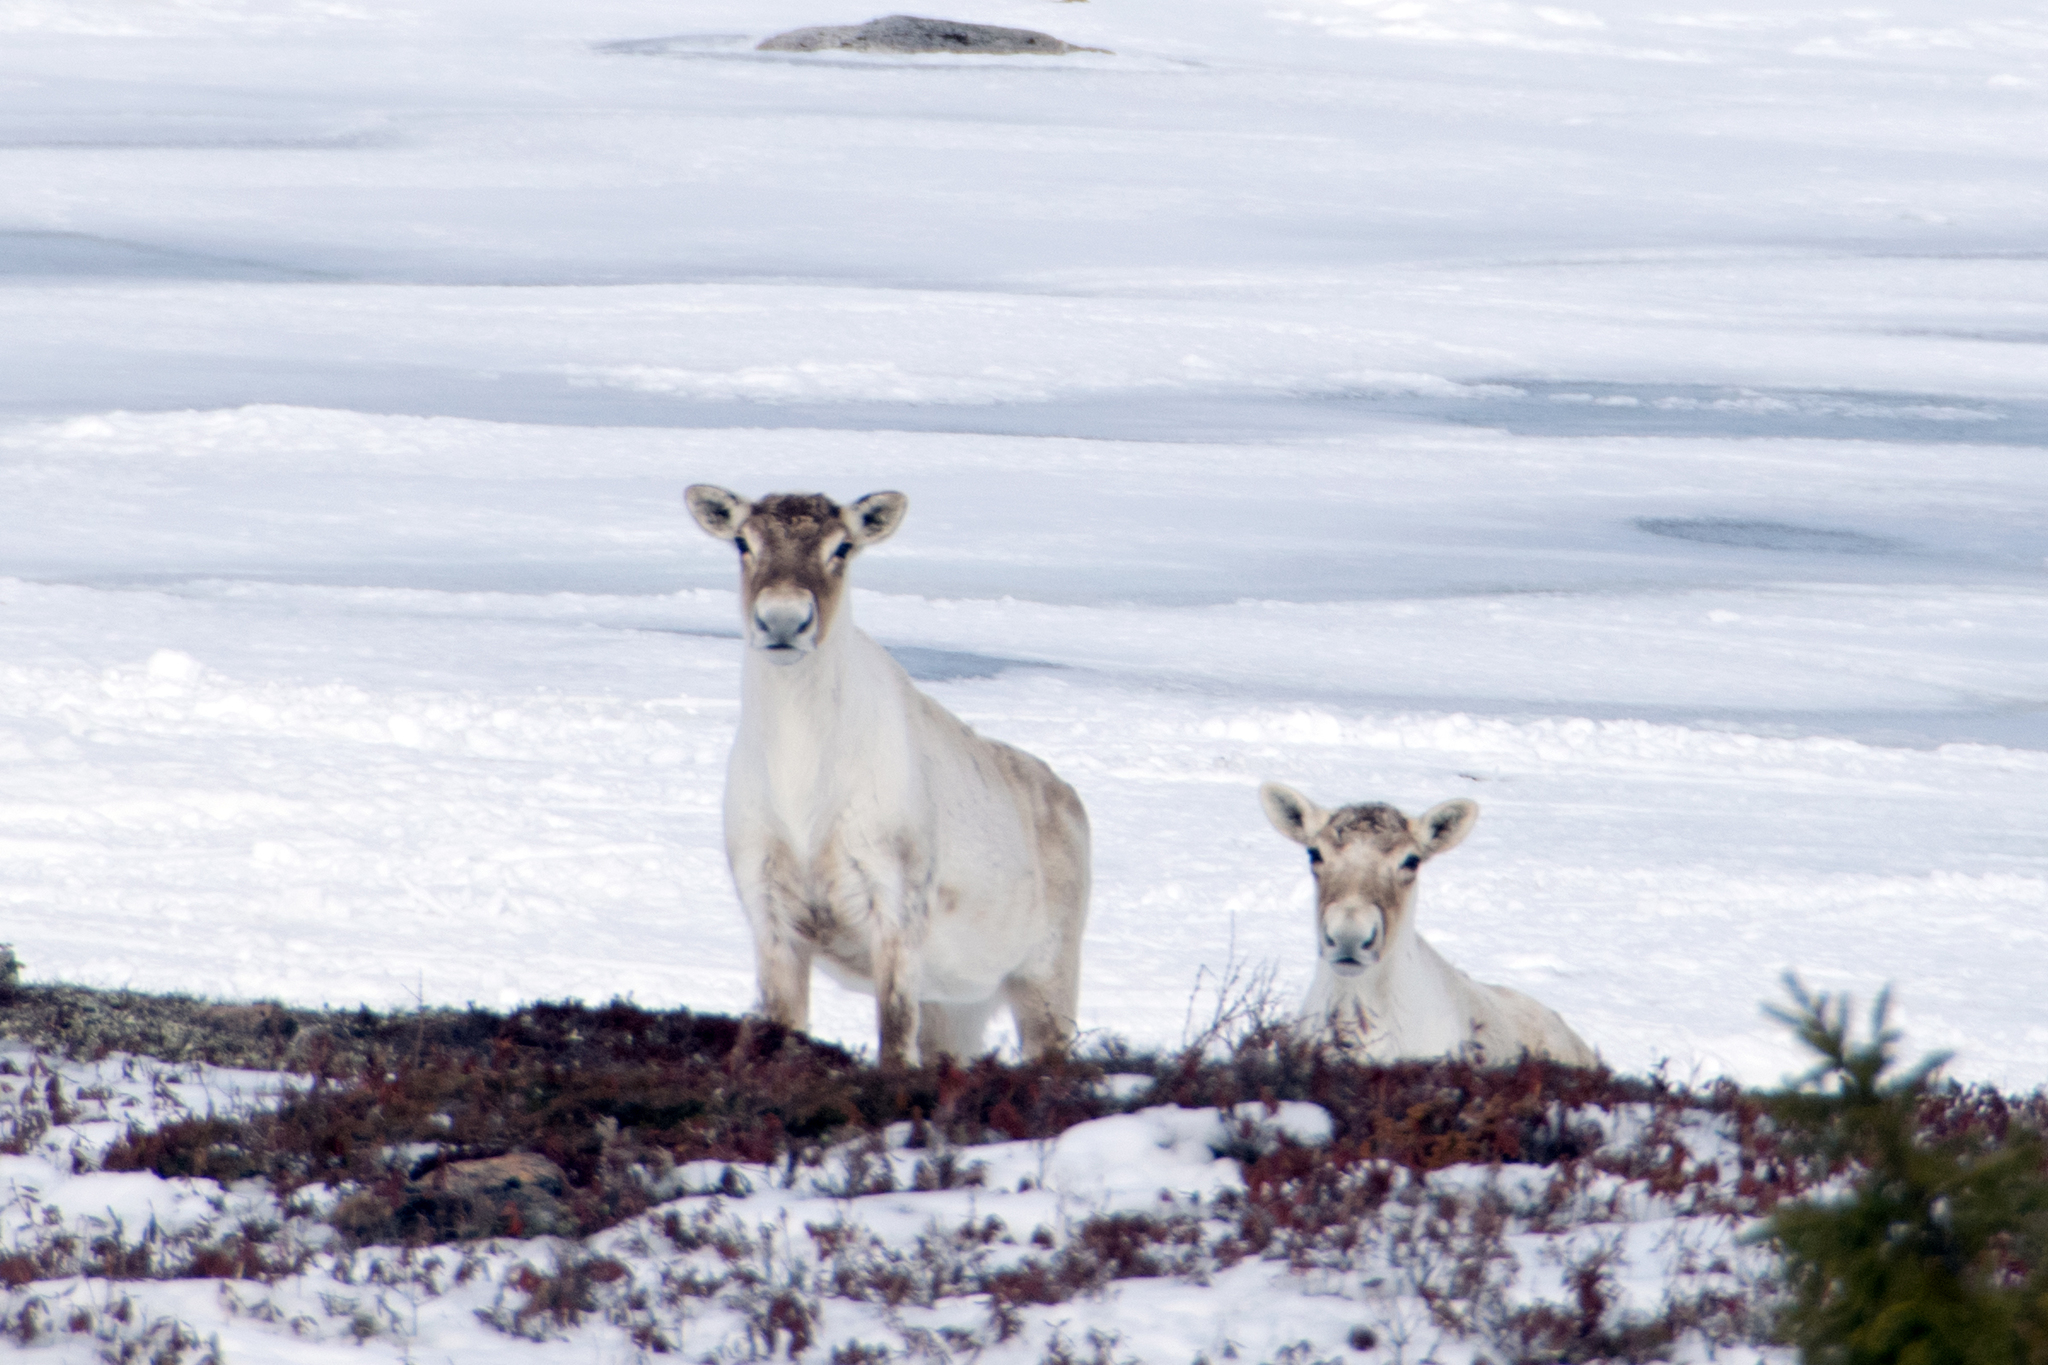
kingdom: Animalia
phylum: Chordata
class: Mammalia
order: Artiodactyla
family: Cervidae
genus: Rangifer
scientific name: Rangifer tarandus
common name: Reindeer
